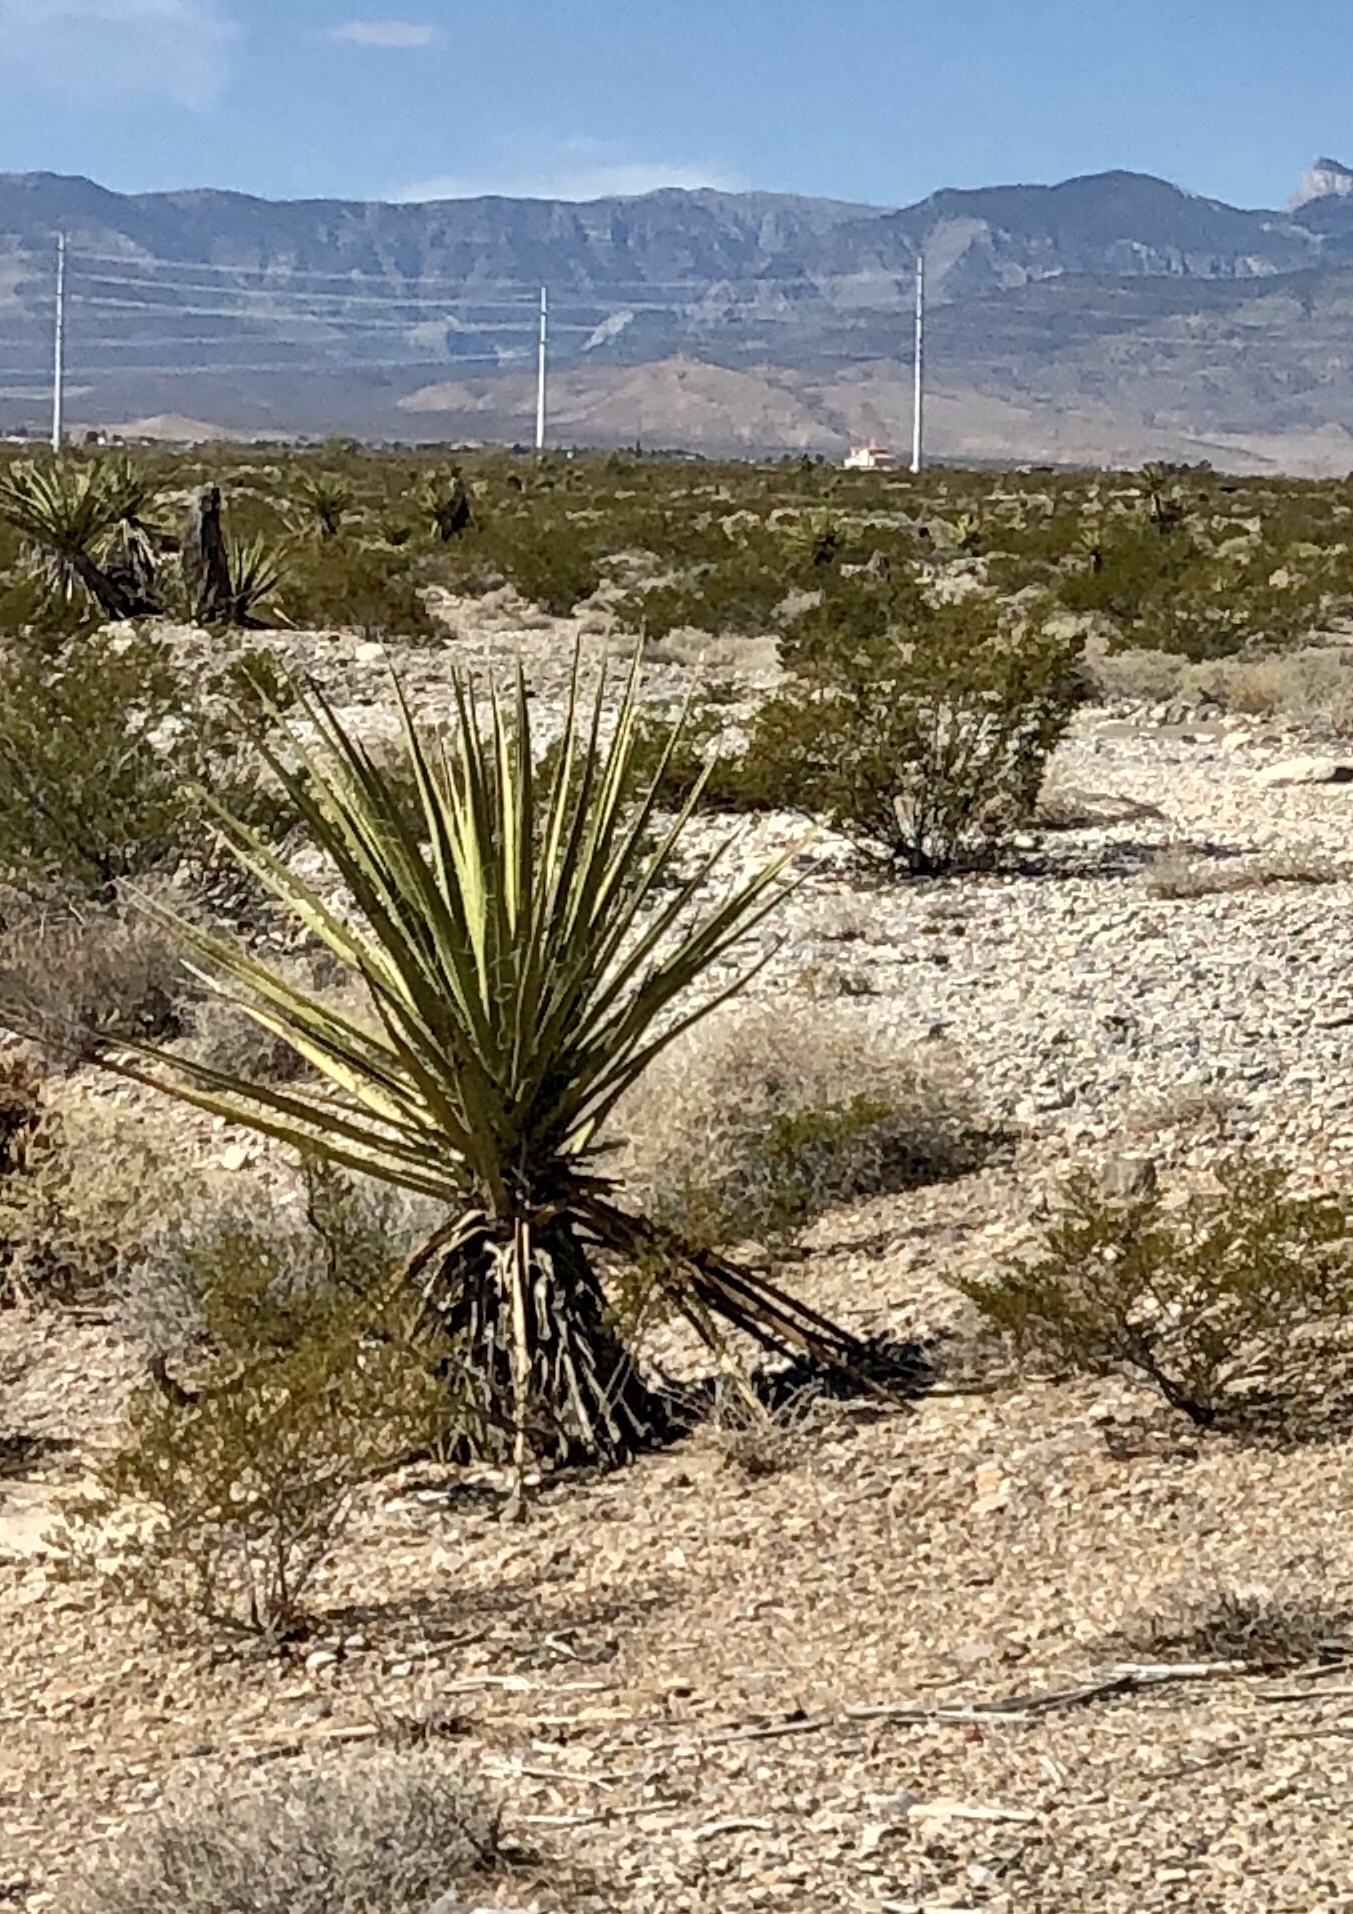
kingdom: Plantae
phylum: Tracheophyta
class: Liliopsida
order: Asparagales
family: Asparagaceae
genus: Yucca
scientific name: Yucca schidigera
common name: Mojave yucca
